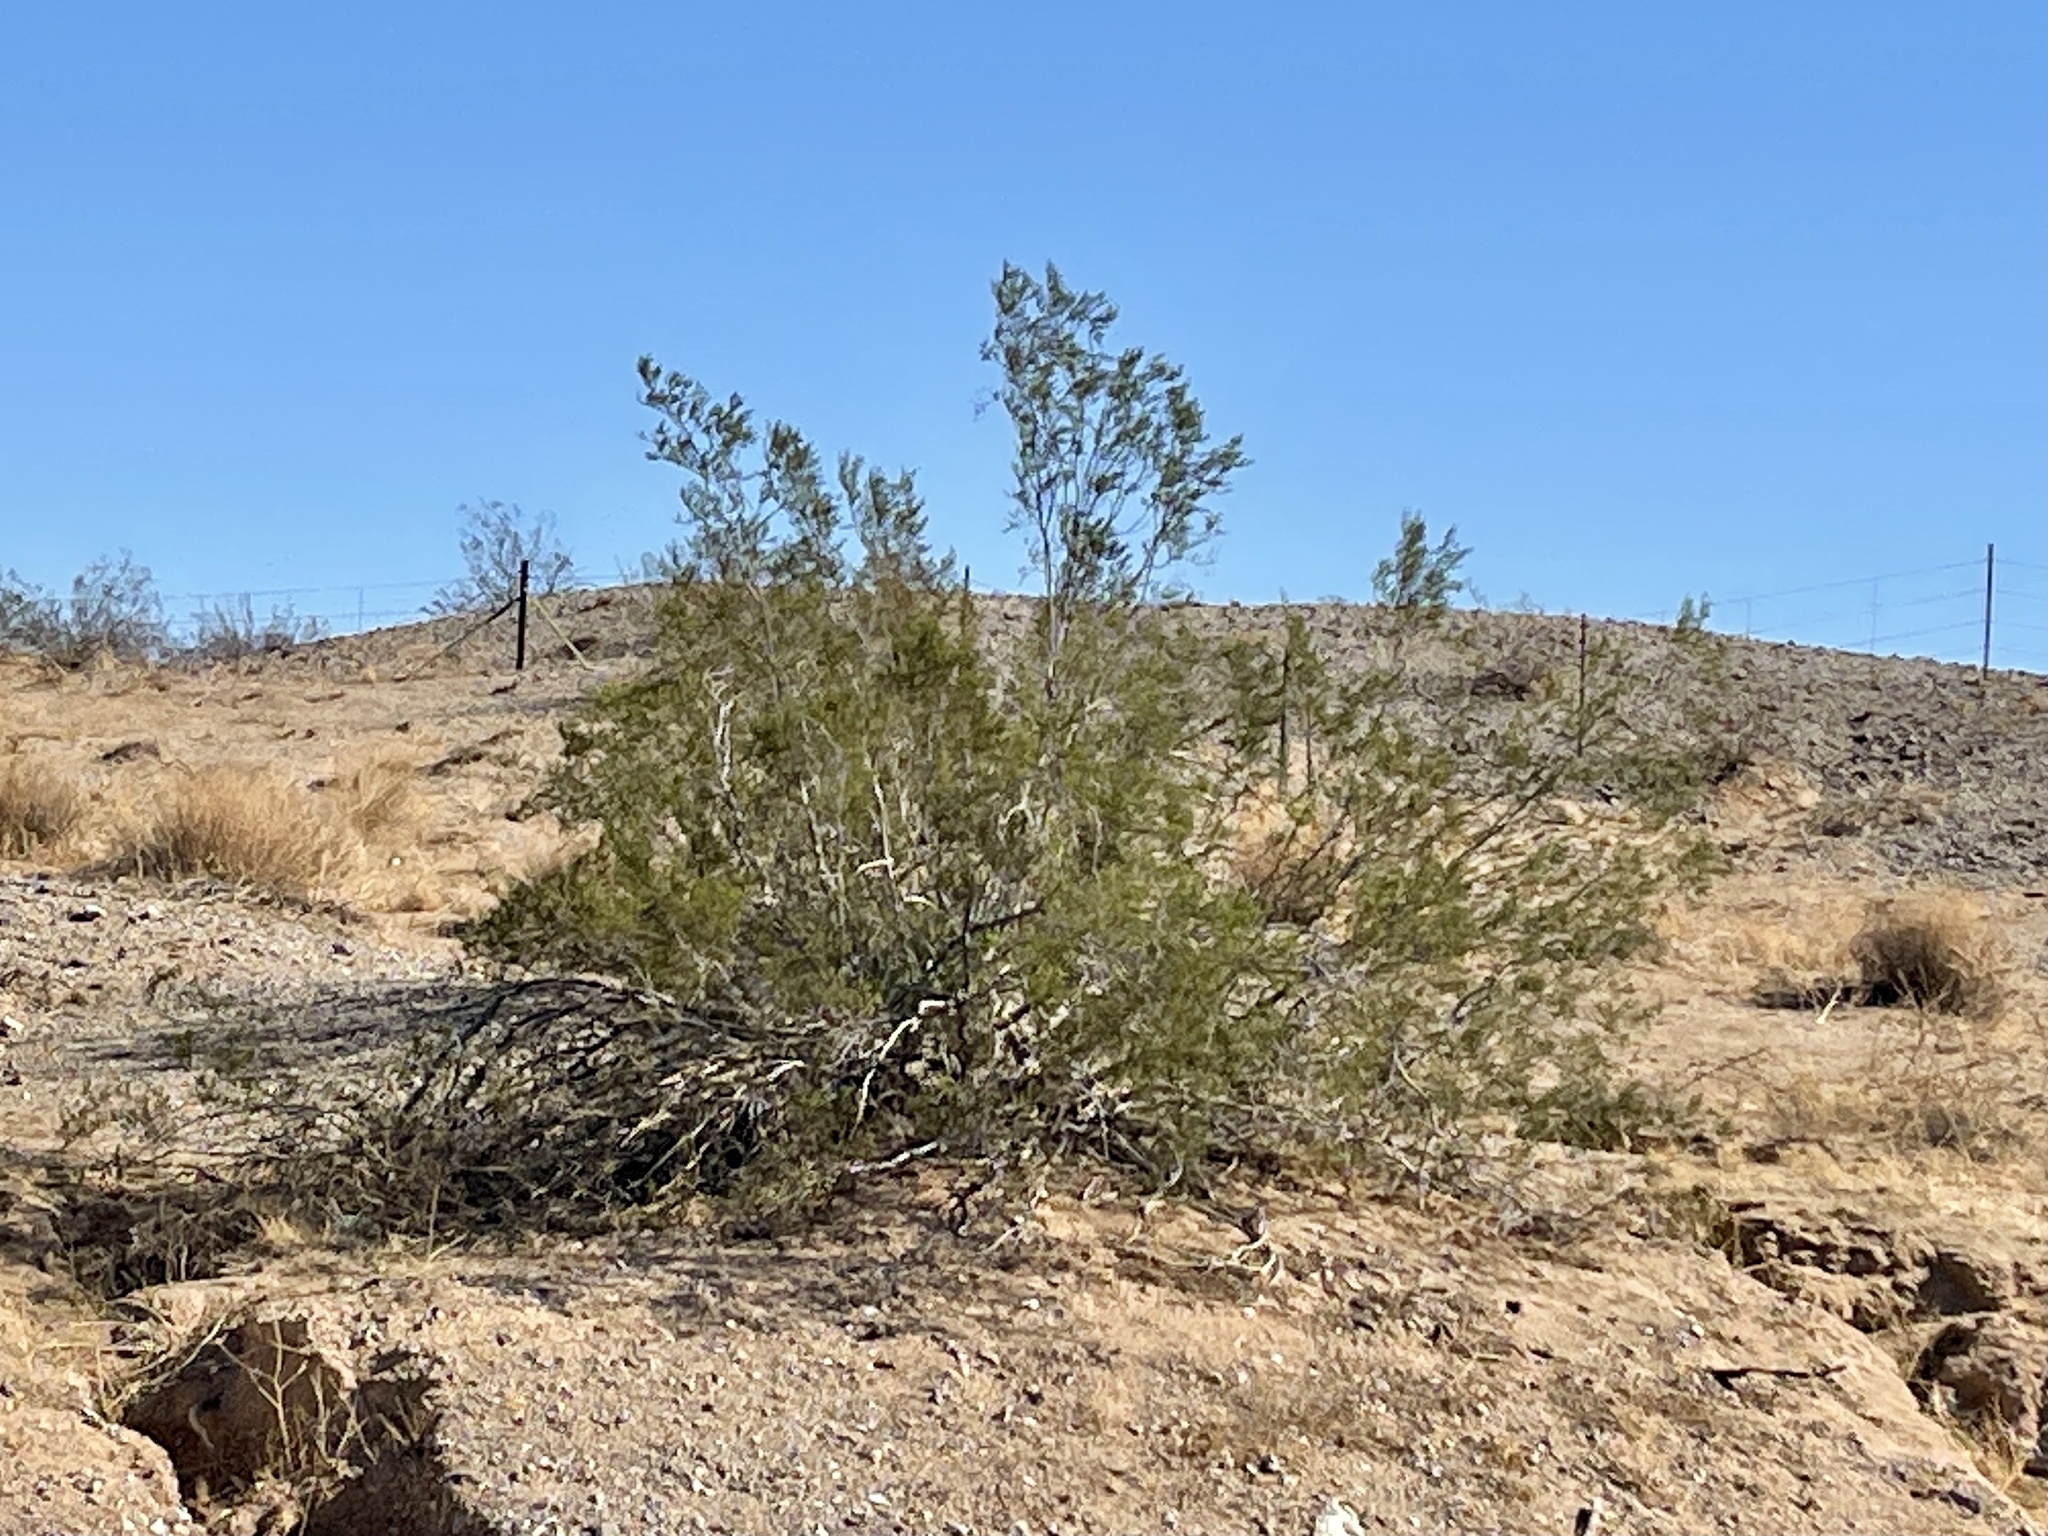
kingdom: Plantae
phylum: Tracheophyta
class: Magnoliopsida
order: Zygophyllales
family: Zygophyllaceae
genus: Larrea
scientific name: Larrea tridentata
